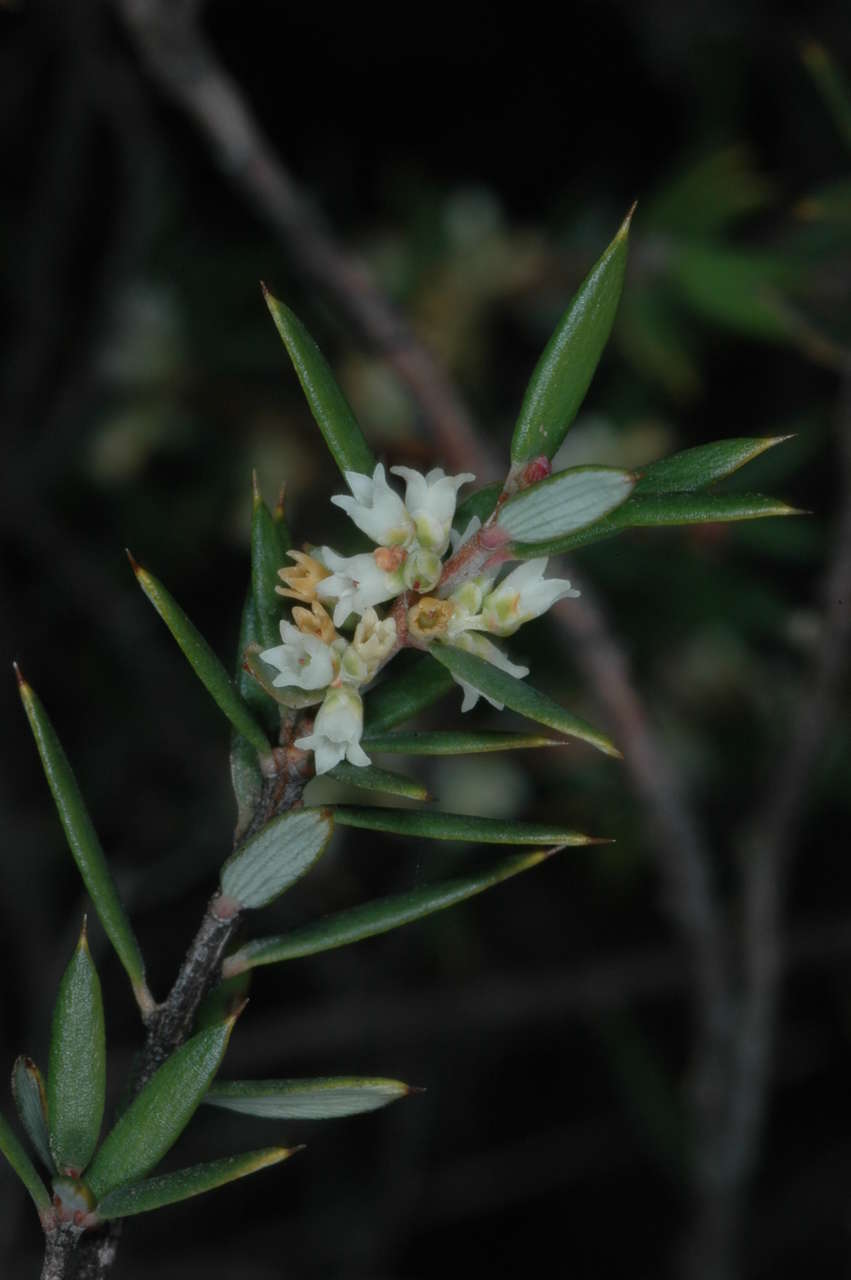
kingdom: Plantae
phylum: Tracheophyta
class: Magnoliopsida
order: Ericales
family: Ericaceae
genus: Monotoca
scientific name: Monotoca scoparia
